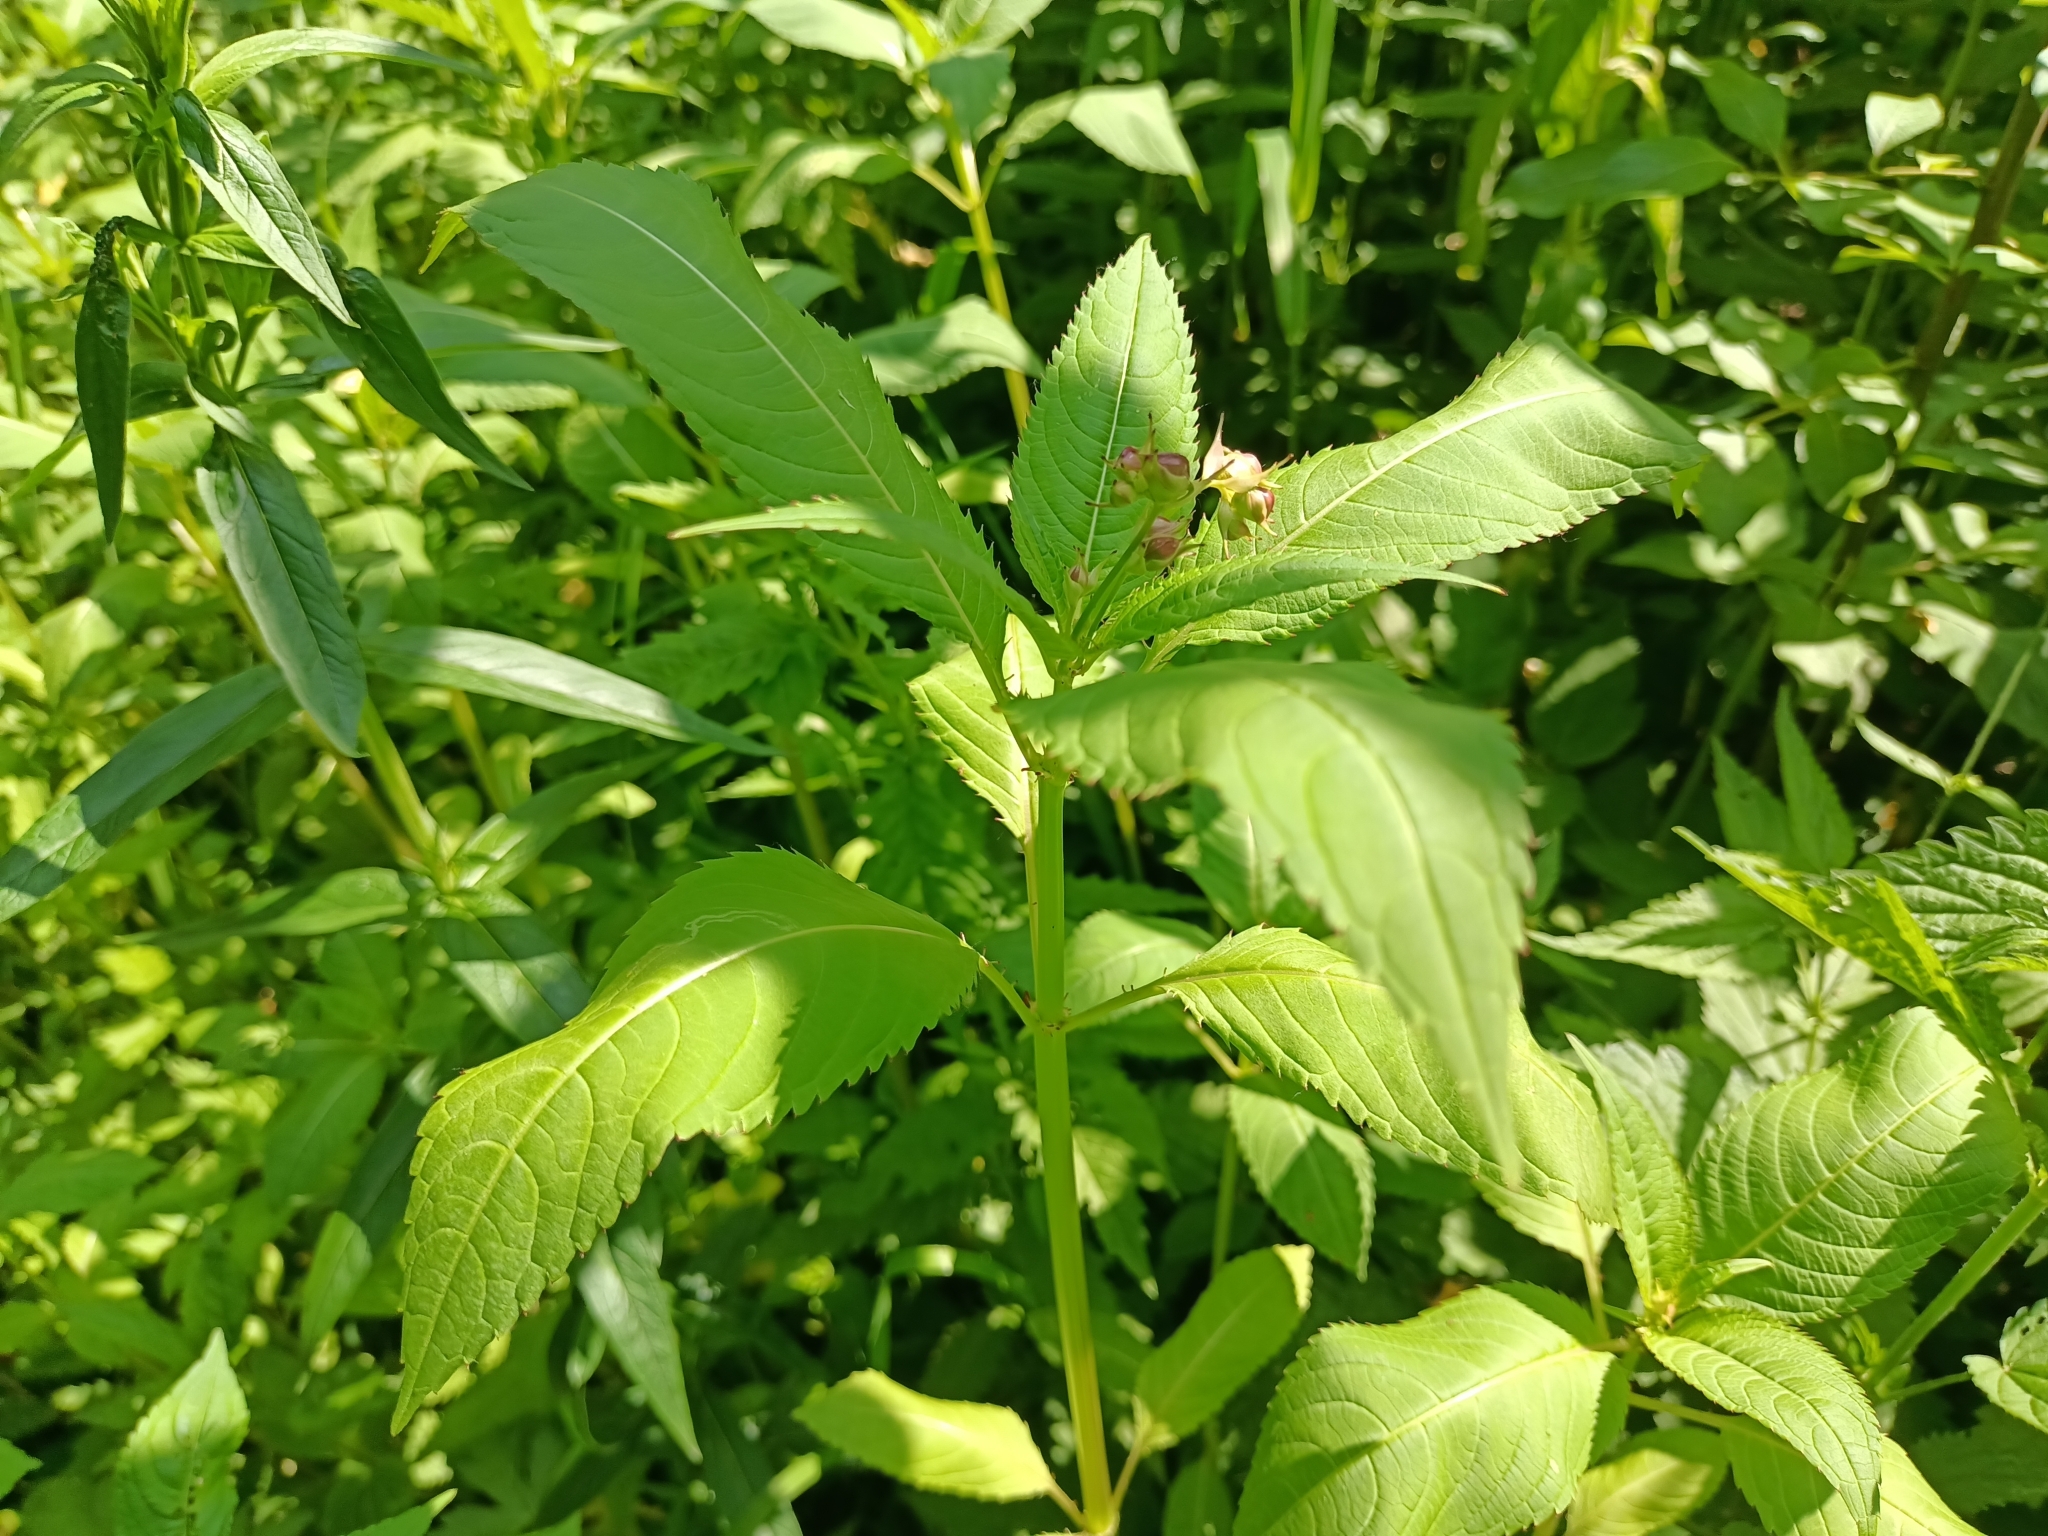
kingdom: Plantae
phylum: Tracheophyta
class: Magnoliopsida
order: Ericales
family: Balsaminaceae
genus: Impatiens
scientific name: Impatiens glandulifera
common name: Himalayan balsam
